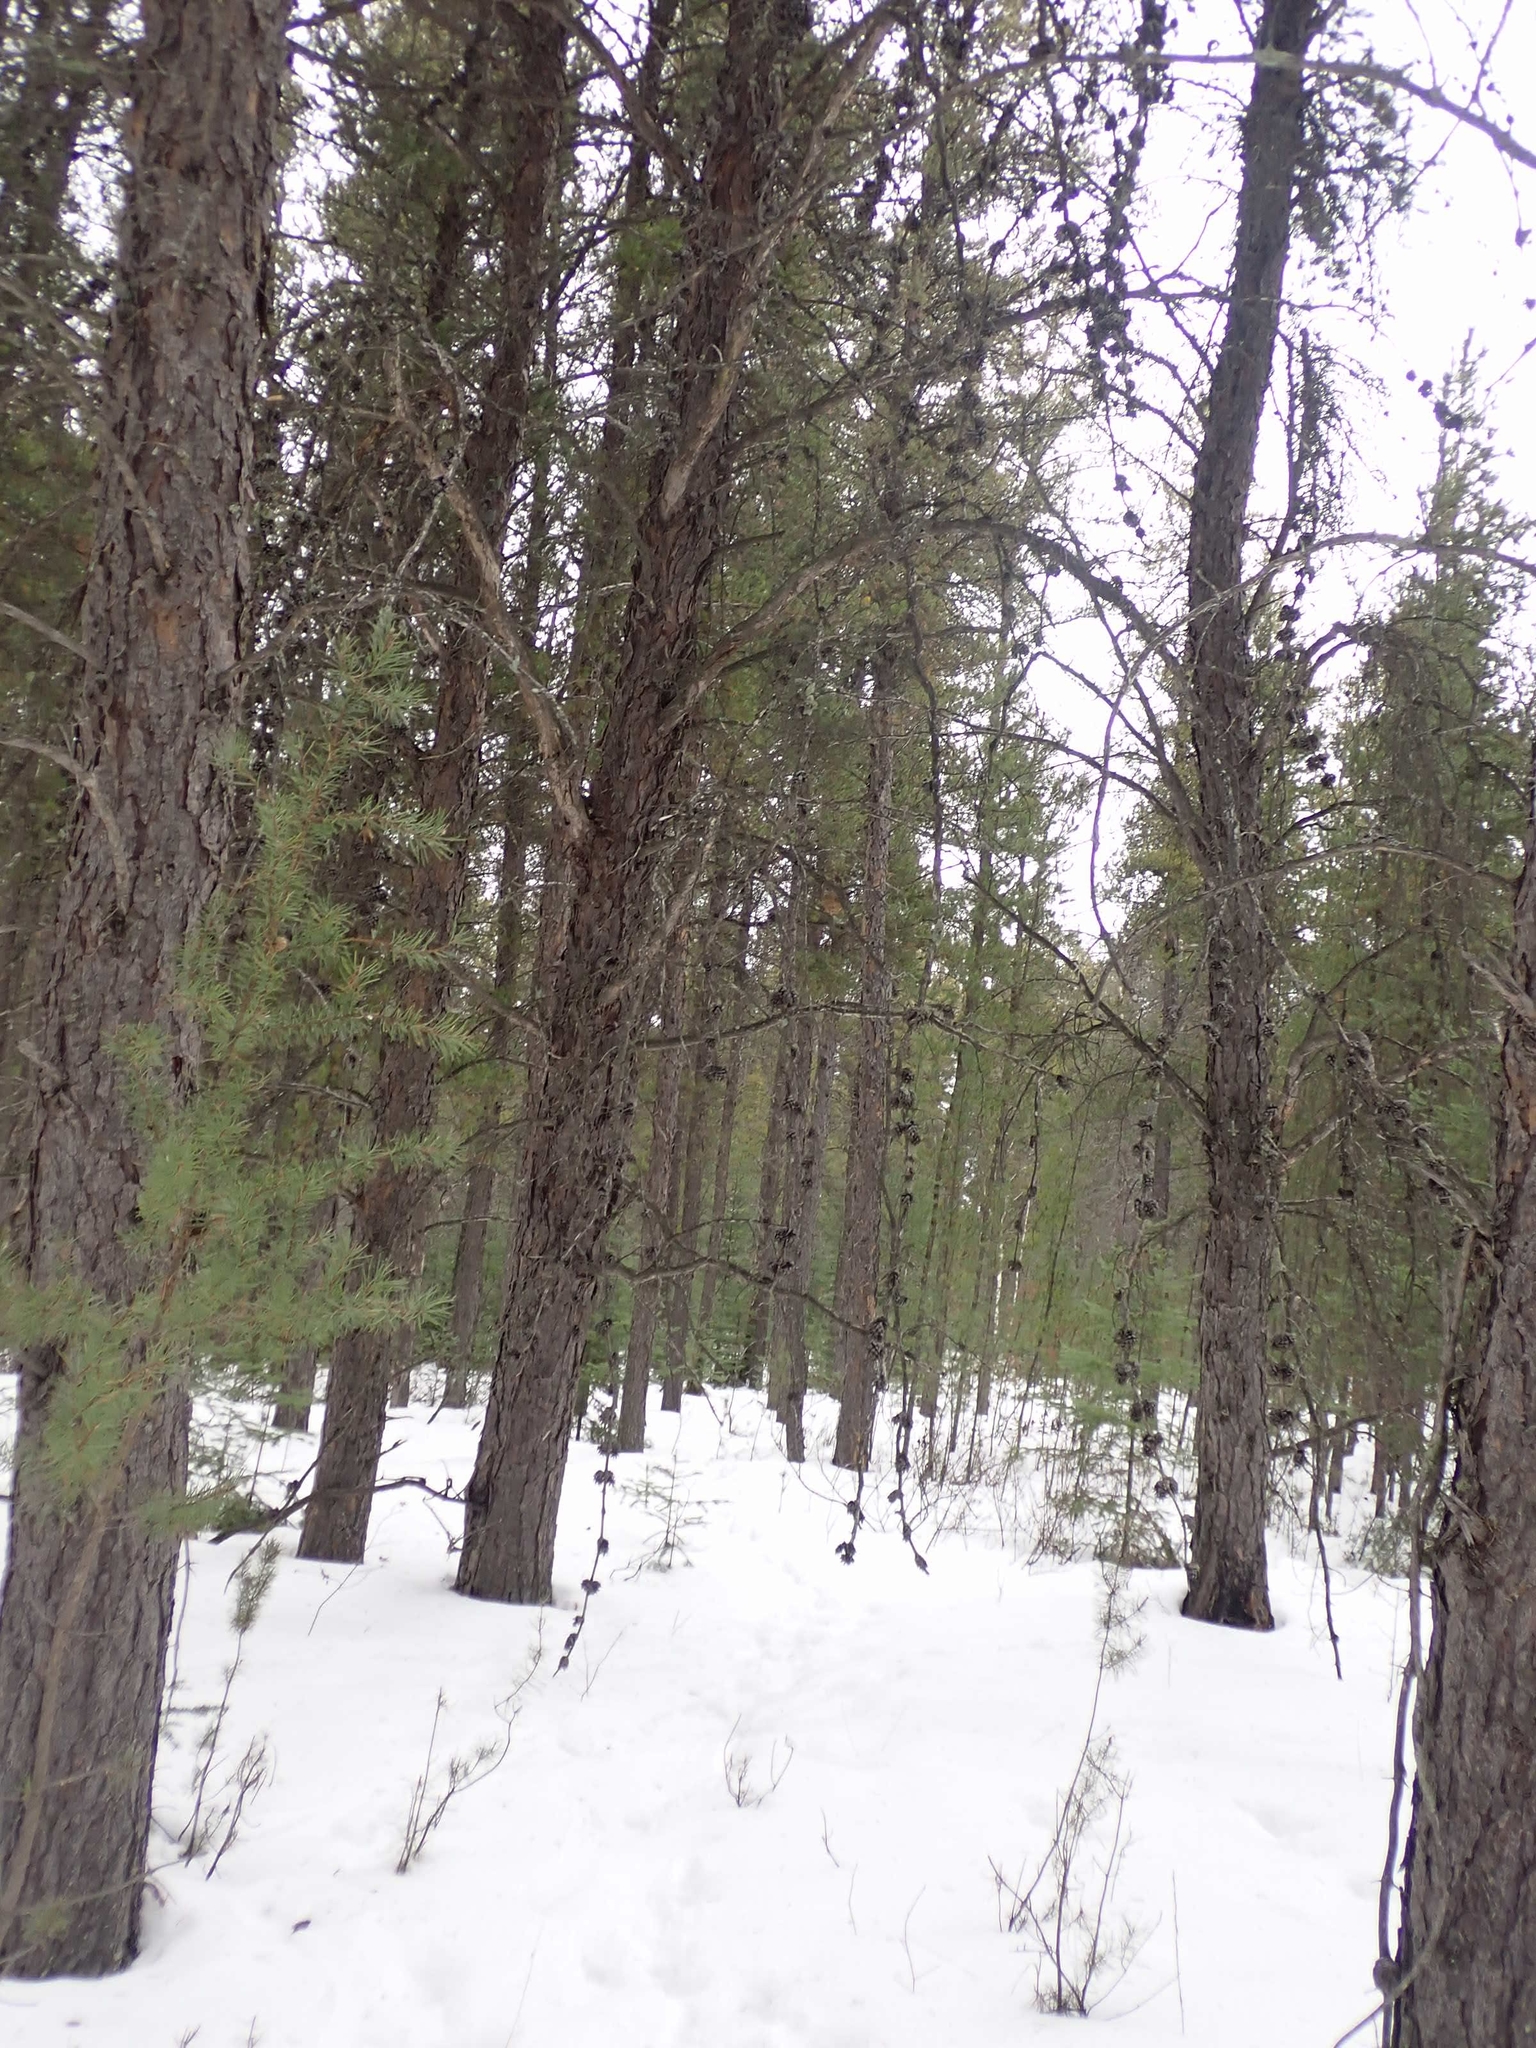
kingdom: Plantae
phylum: Tracheophyta
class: Pinopsida
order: Pinales
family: Pinaceae
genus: Pinus
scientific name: Pinus banksiana
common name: Jack pine
